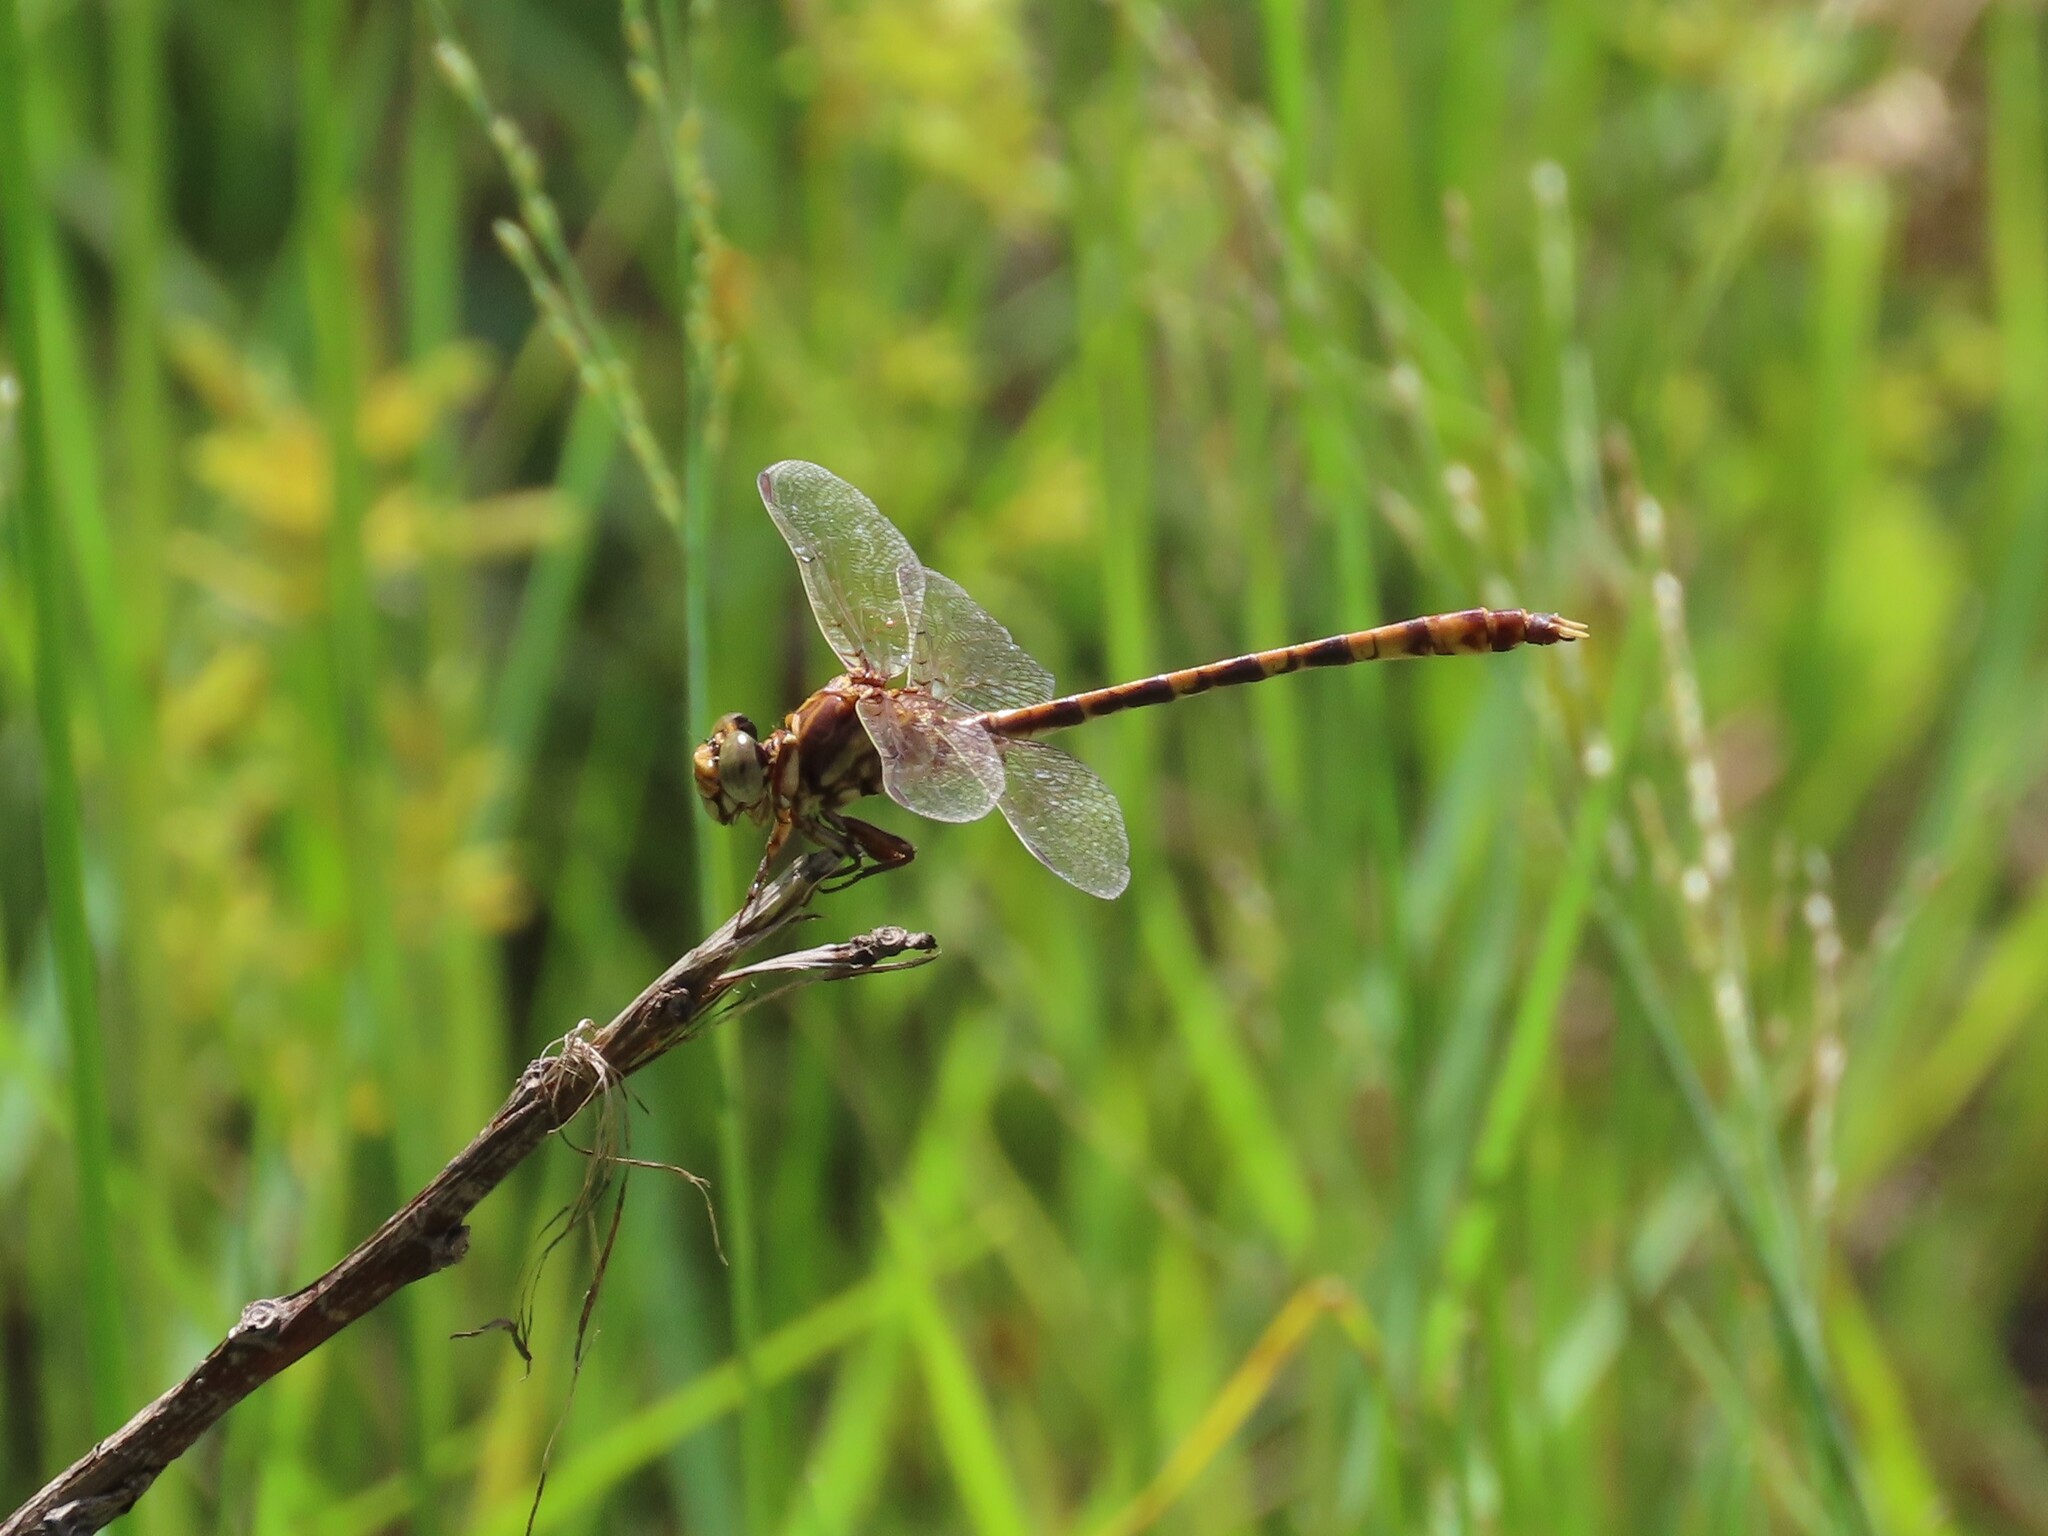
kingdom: Animalia
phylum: Arthropoda
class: Insecta
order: Odonata
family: Gomphidae
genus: Progomphus
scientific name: Progomphus alachuensis
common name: Tawny sanddragon
